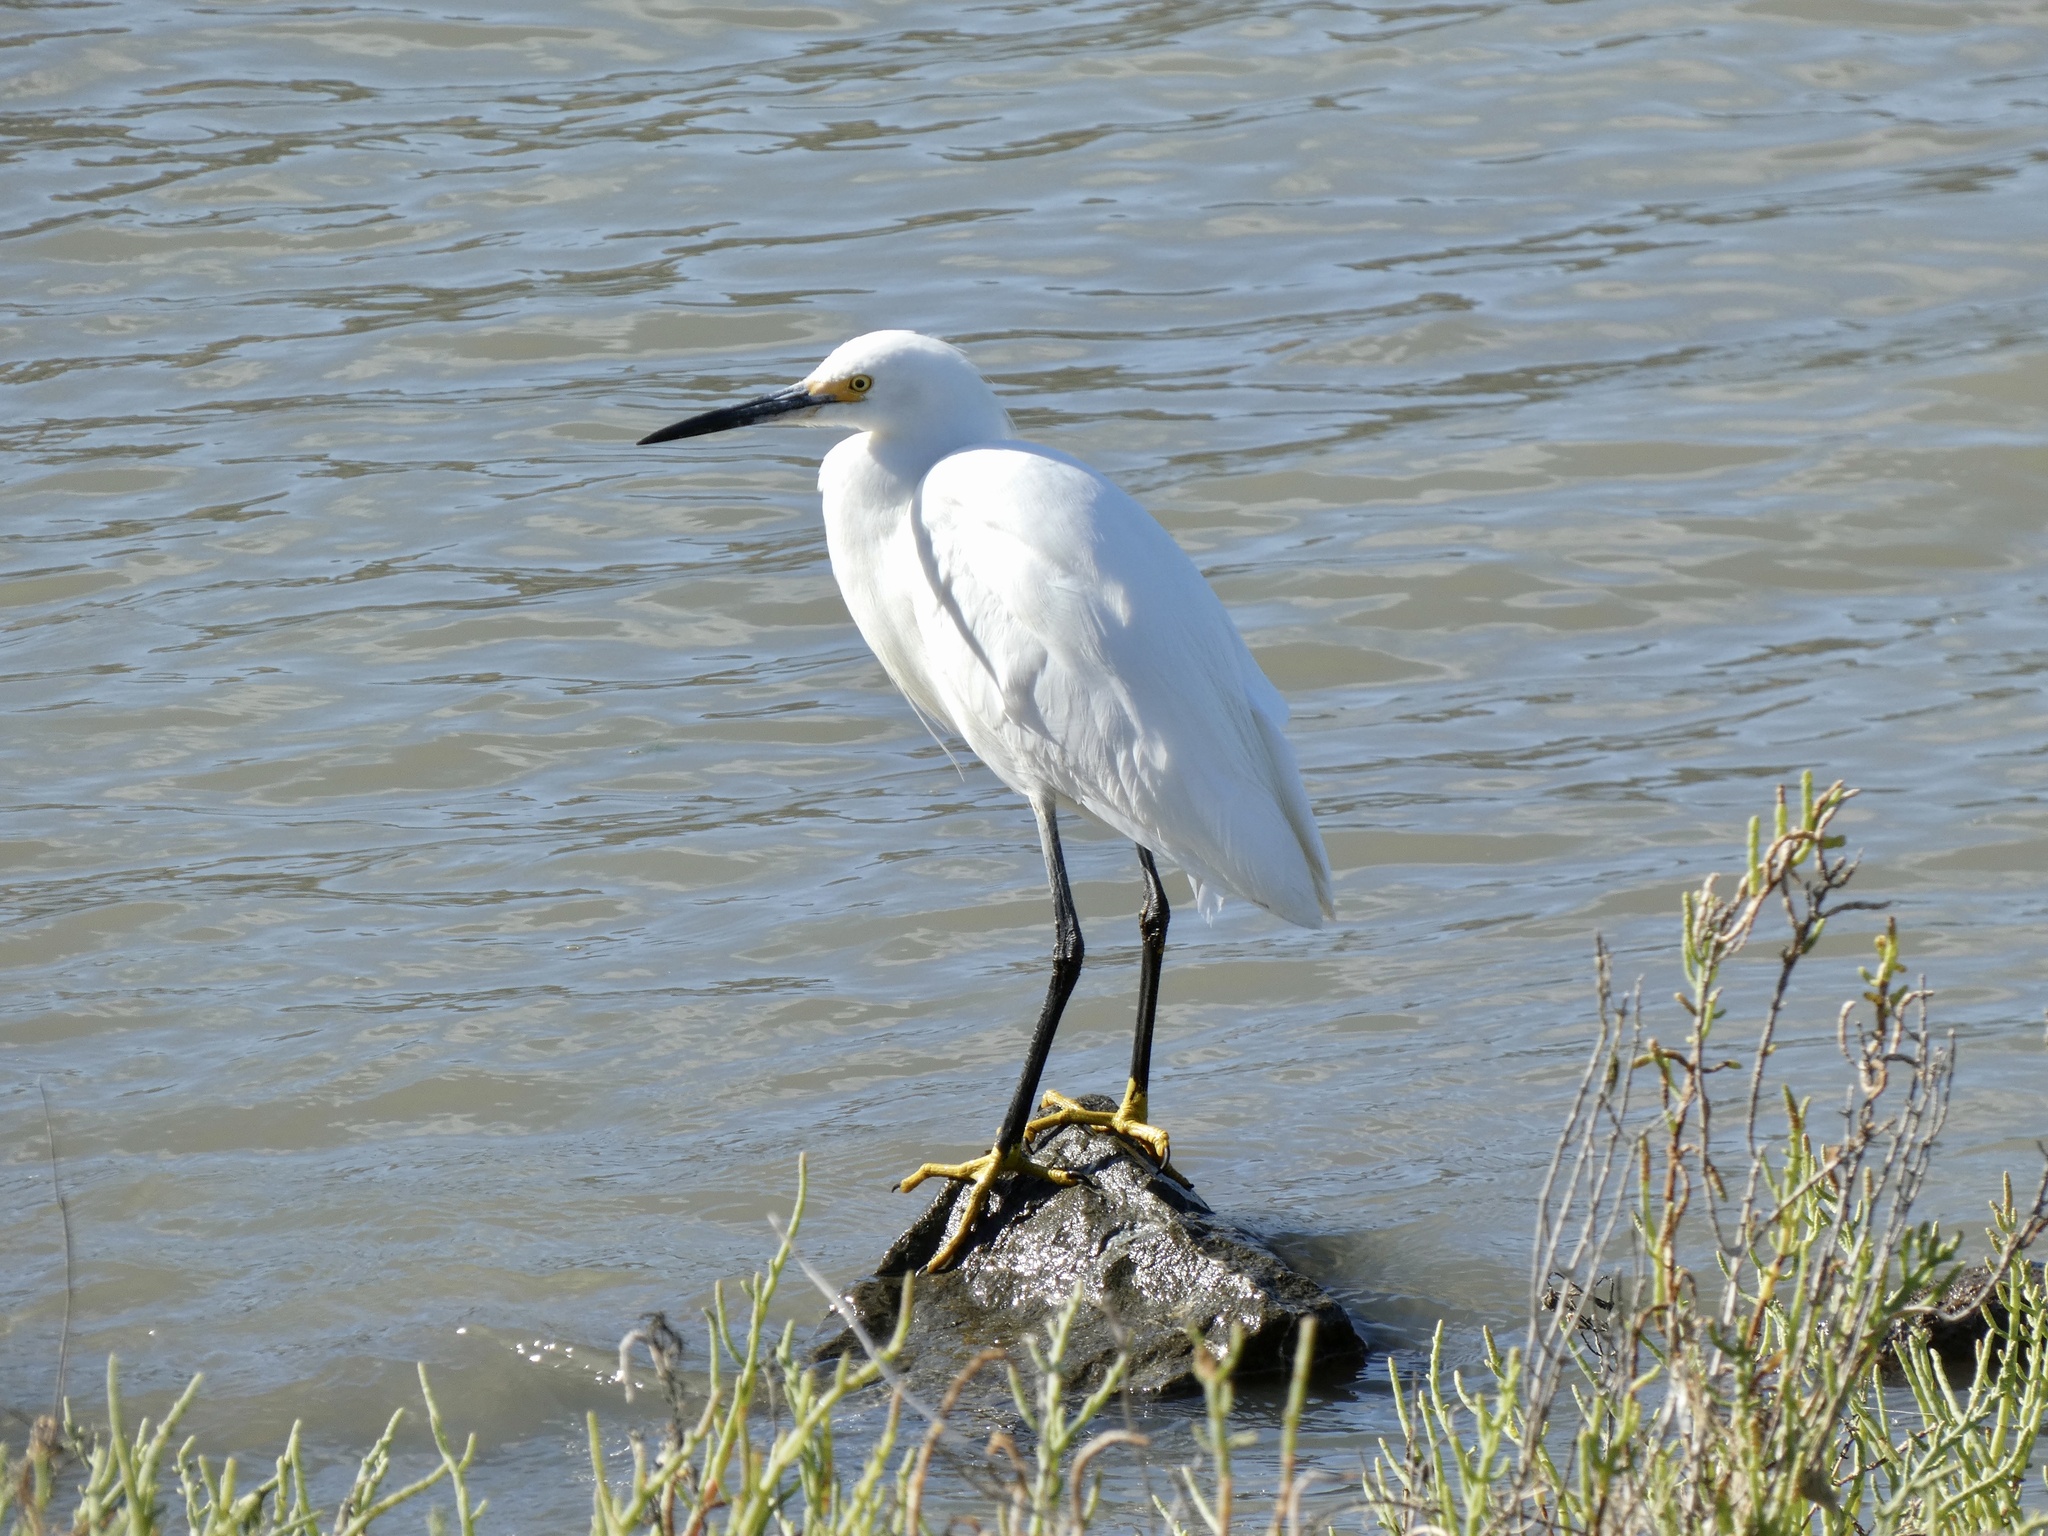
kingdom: Animalia
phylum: Chordata
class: Aves
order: Pelecaniformes
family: Ardeidae
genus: Egretta
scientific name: Egretta thula
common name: Snowy egret
